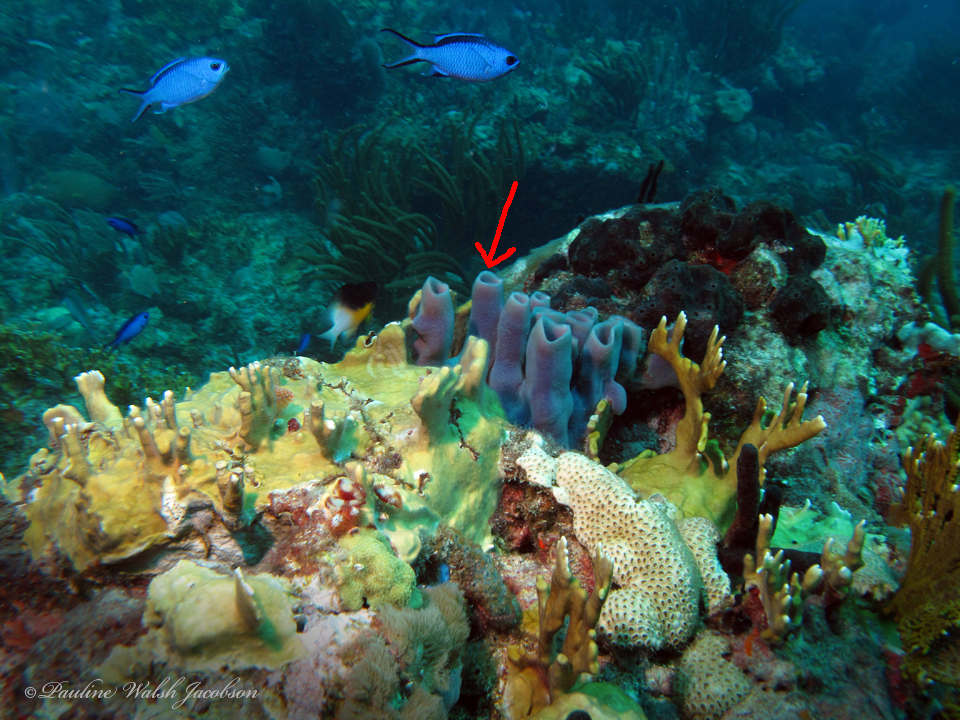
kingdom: Animalia
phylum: Porifera
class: Demospongiae
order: Haplosclerida
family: Callyspongiidae
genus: Callyspongia
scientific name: Callyspongia fallax
